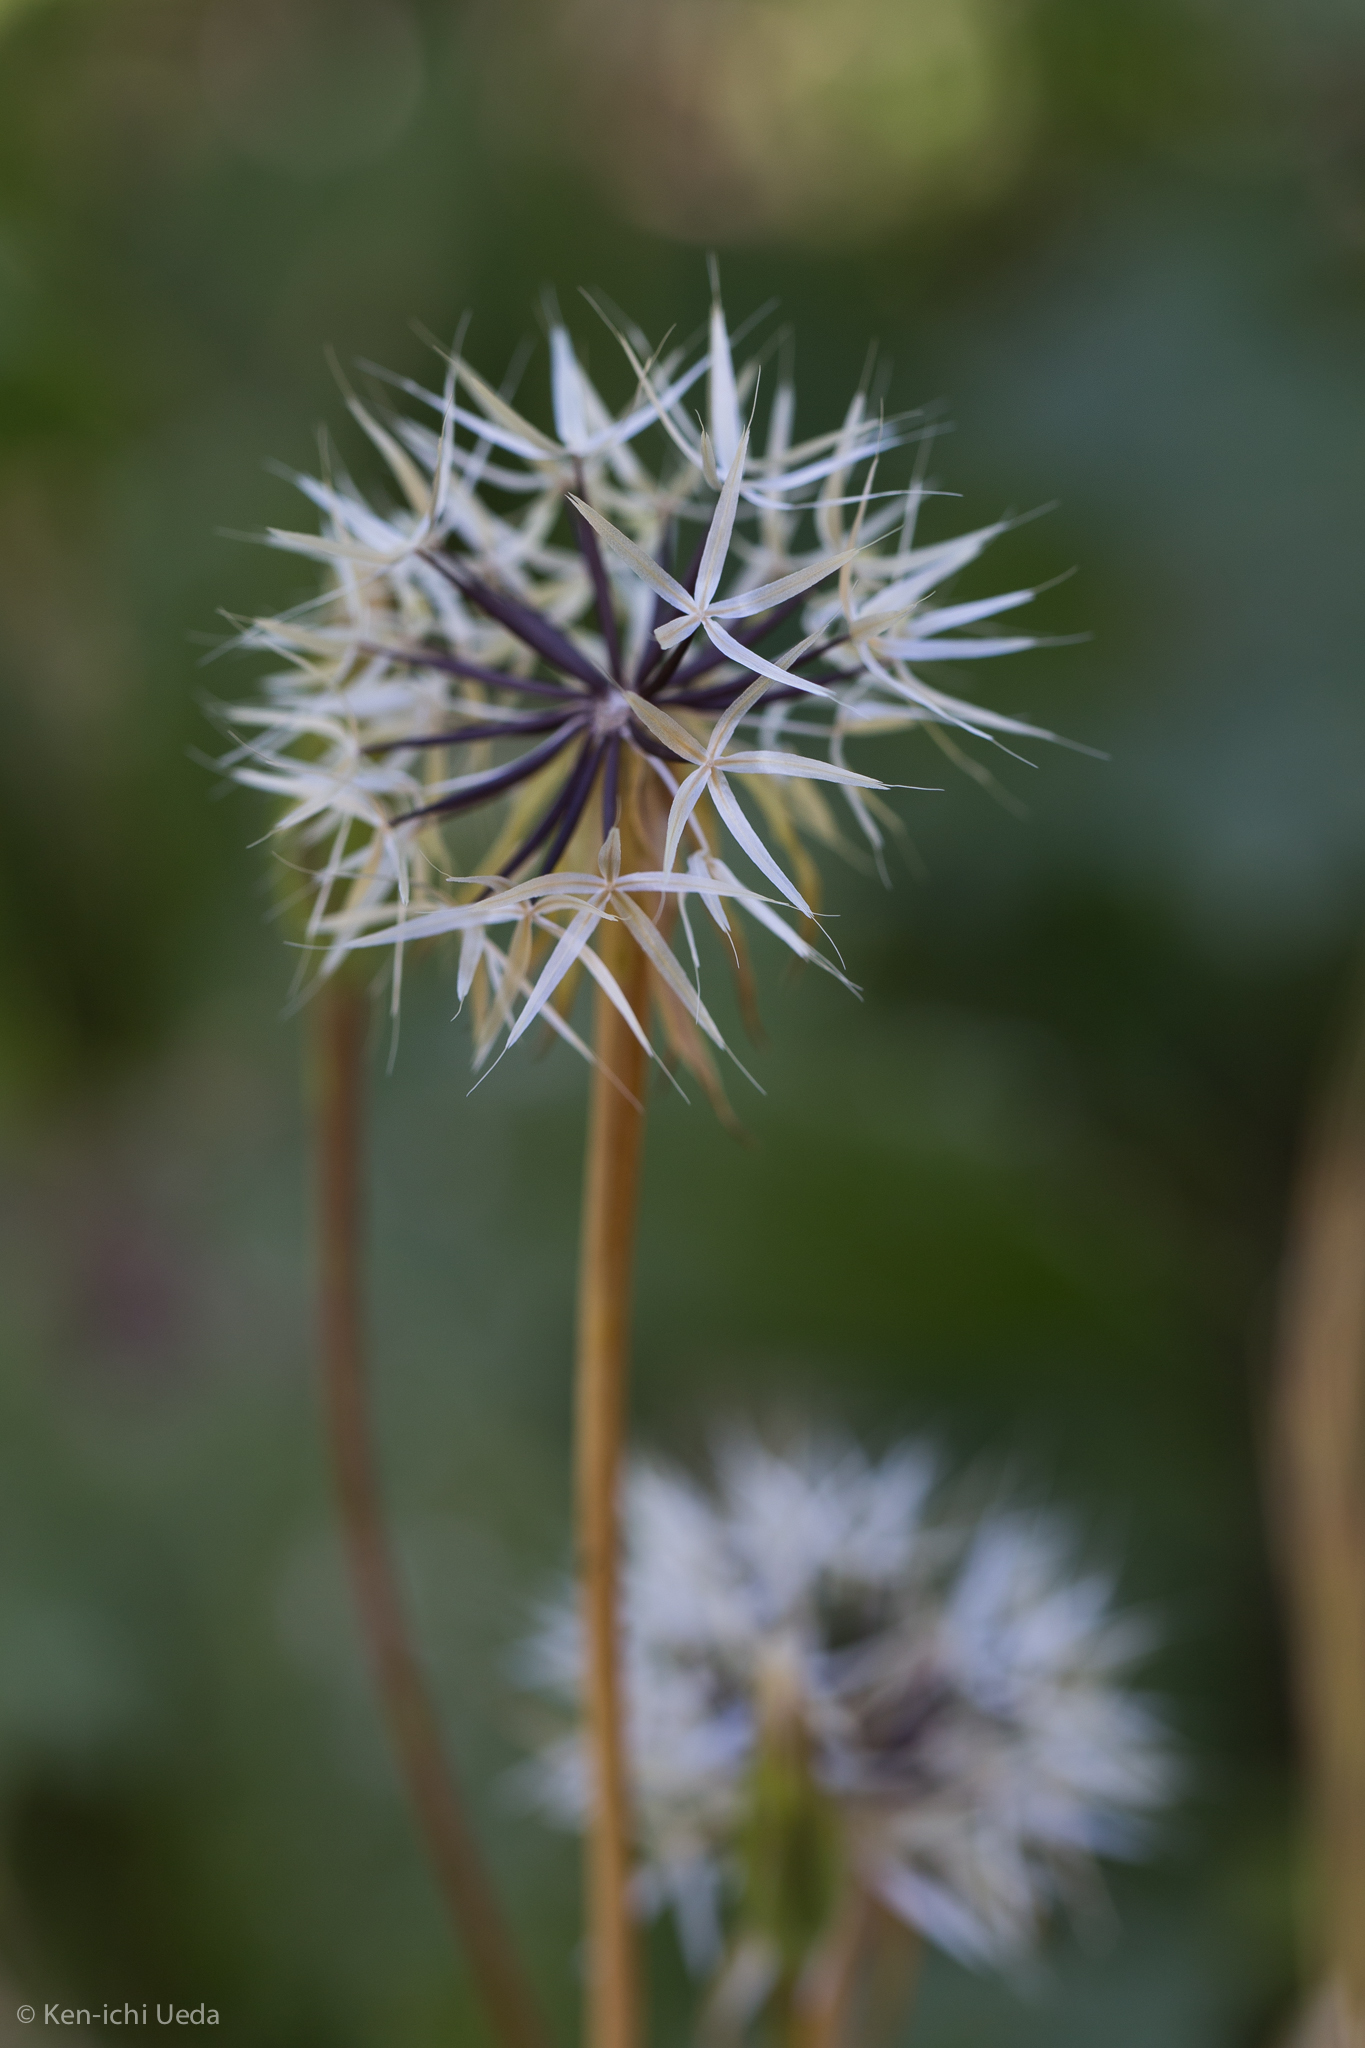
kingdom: Plantae
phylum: Tracheophyta
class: Magnoliopsida
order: Asterales
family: Asteraceae
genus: Microseris
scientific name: Microseris lindleyi
